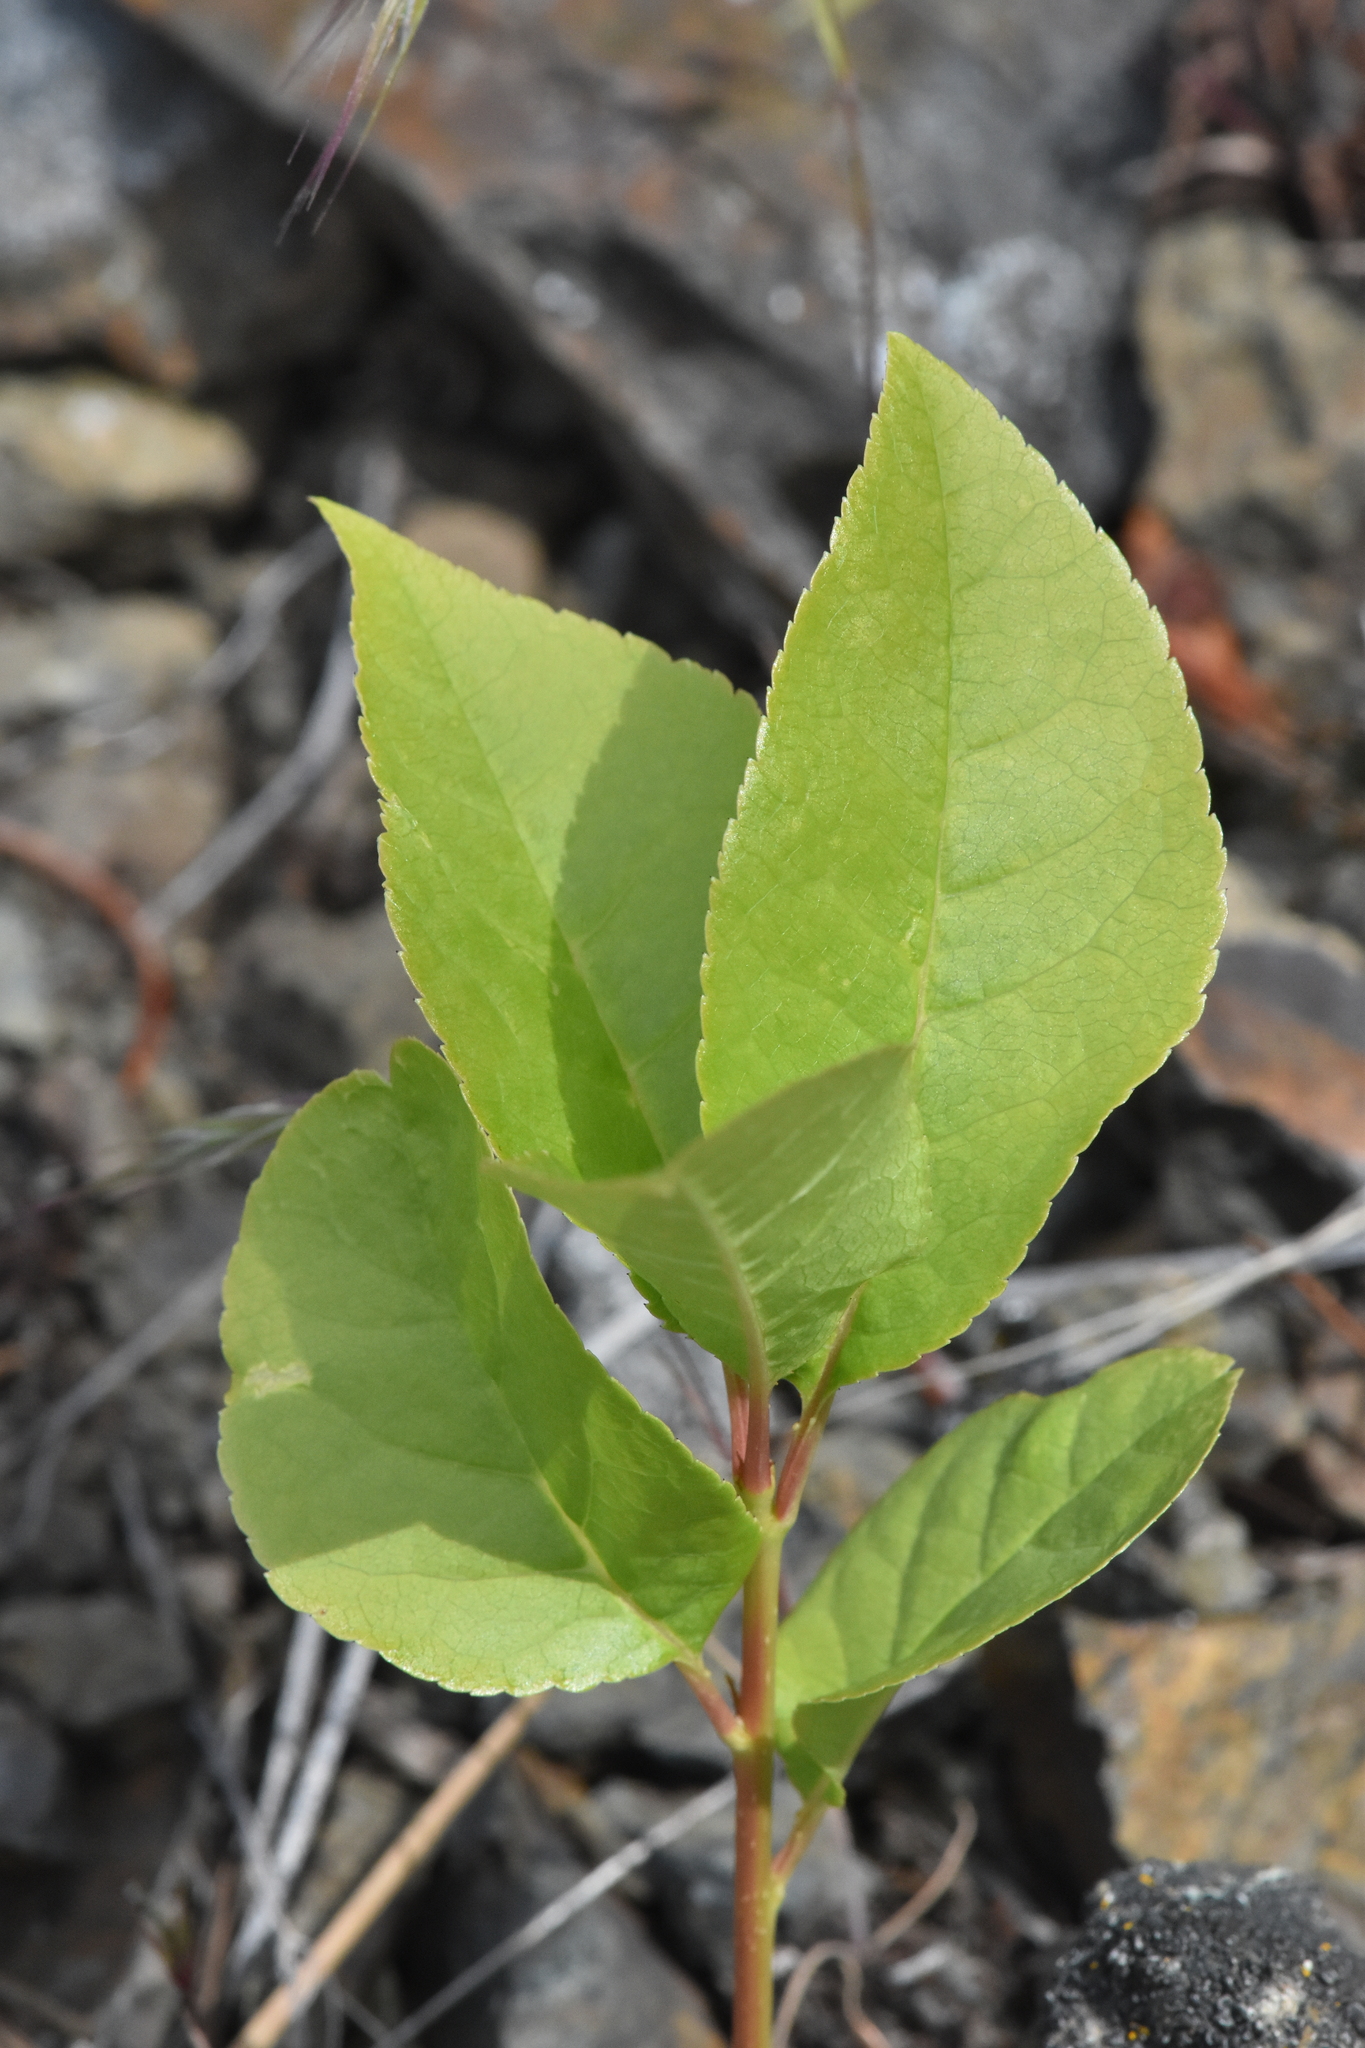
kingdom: Plantae
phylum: Tracheophyta
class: Magnoliopsida
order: Rosales
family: Rosaceae
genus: Prunus
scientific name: Prunus virginiana
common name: Chokecherry
